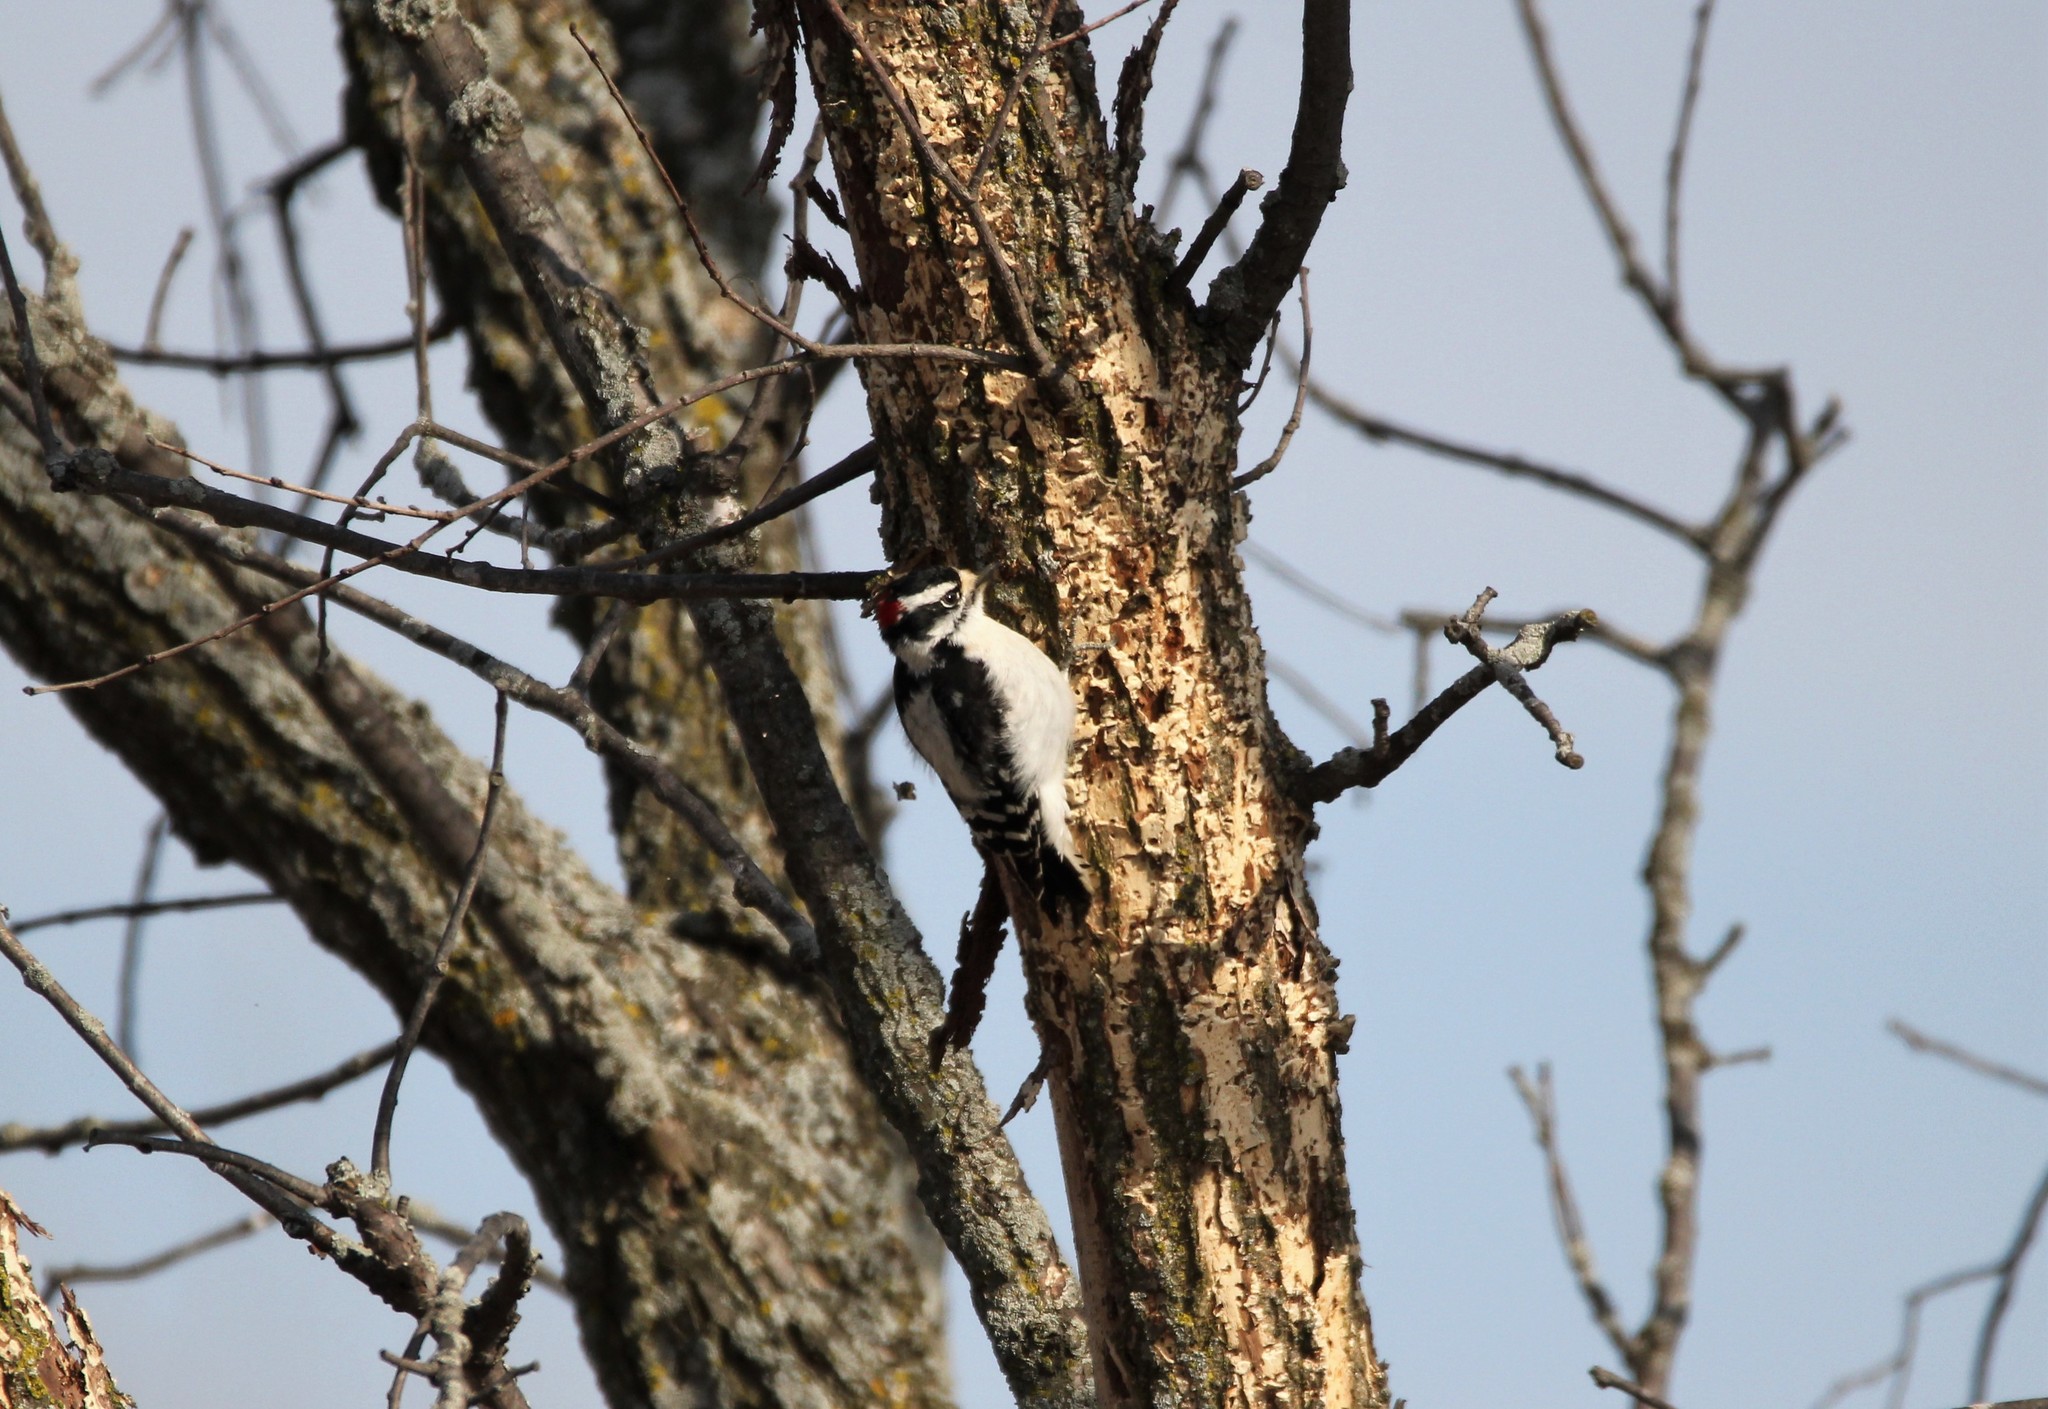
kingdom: Animalia
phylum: Chordata
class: Aves
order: Piciformes
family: Picidae
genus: Dryobates
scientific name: Dryobates pubescens
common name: Downy woodpecker
